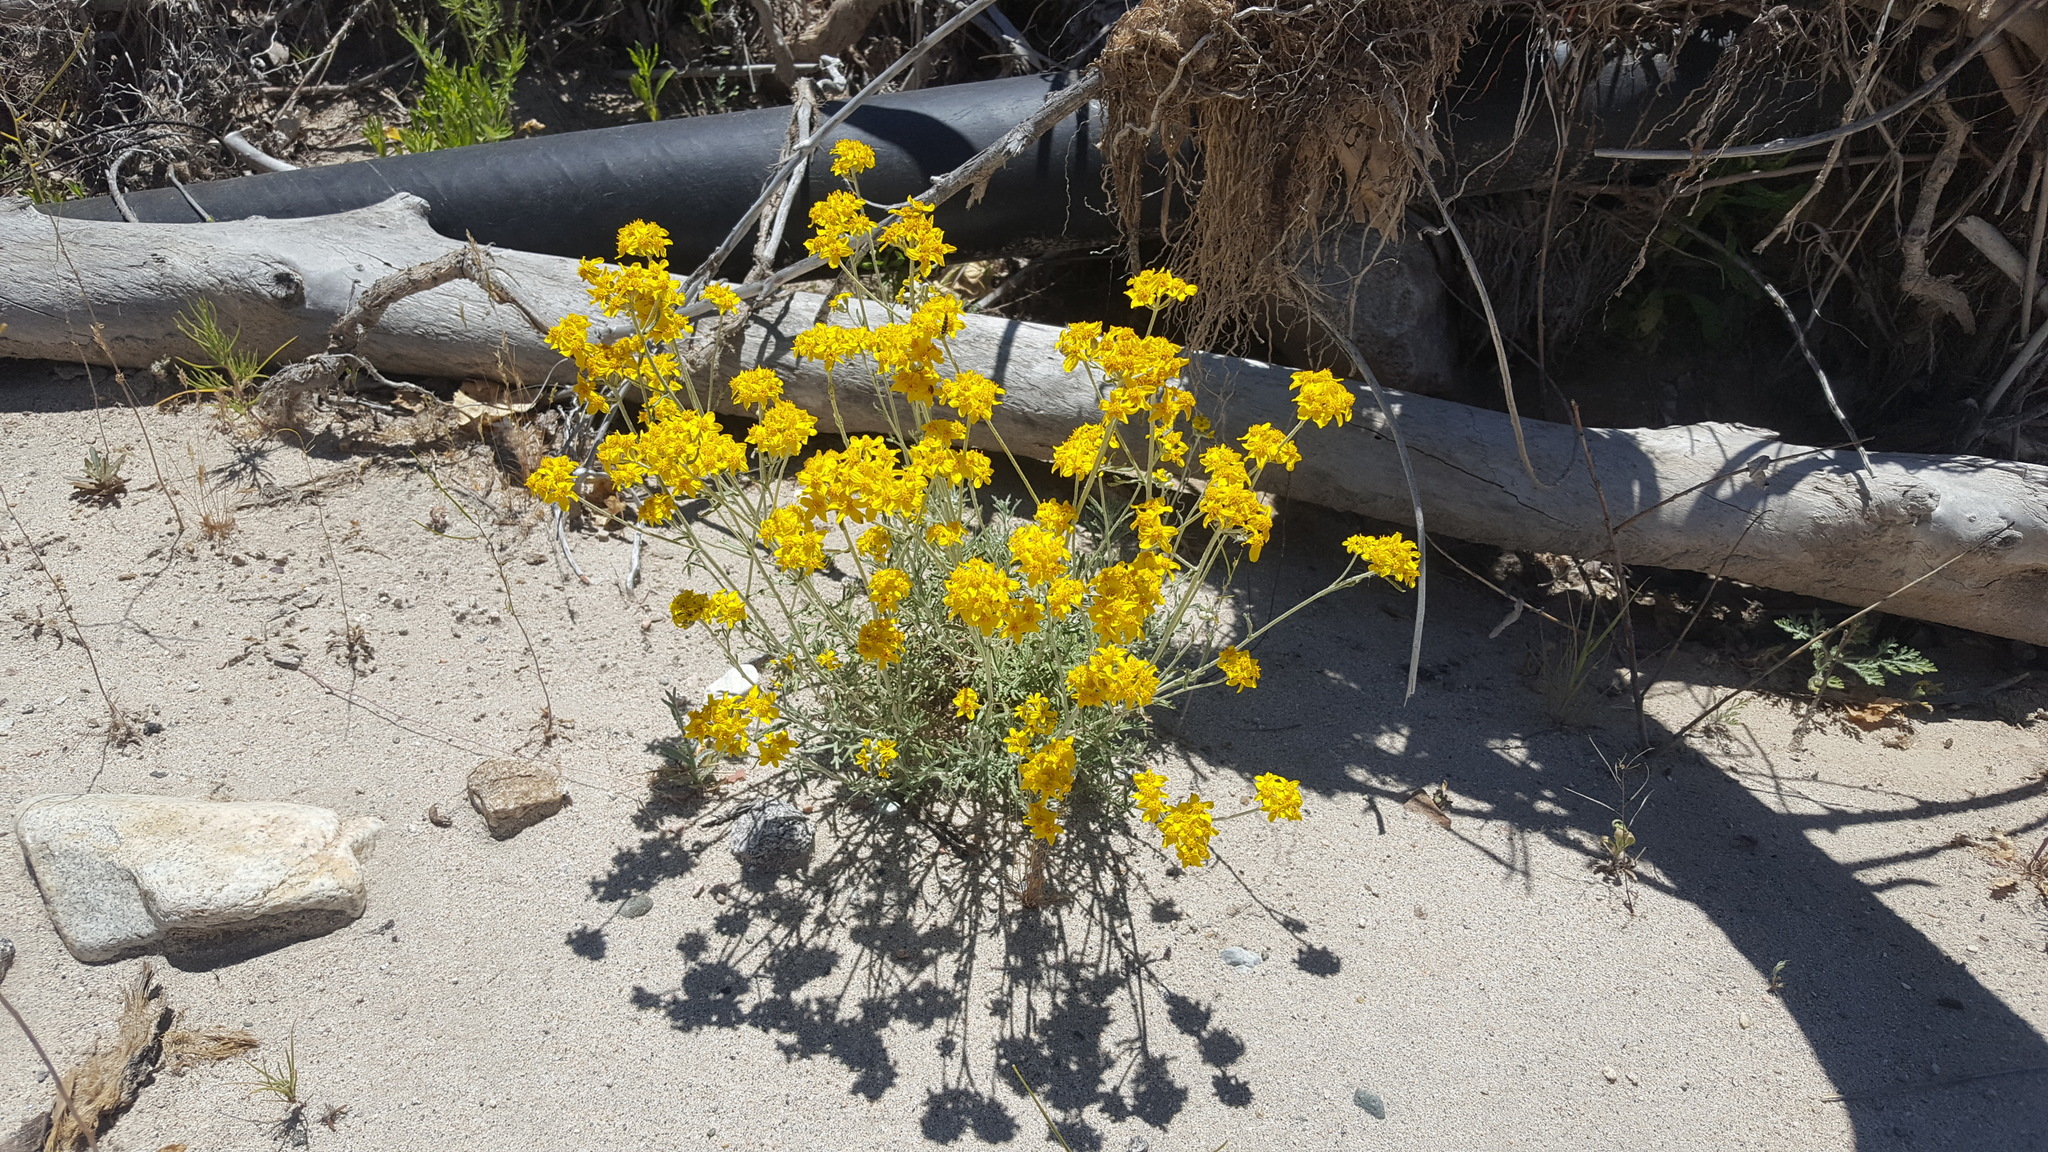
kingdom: Plantae
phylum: Tracheophyta
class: Magnoliopsida
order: Asterales
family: Asteraceae
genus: Eriophyllum
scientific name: Eriophyllum confertiflorum
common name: Golden-yarrow
